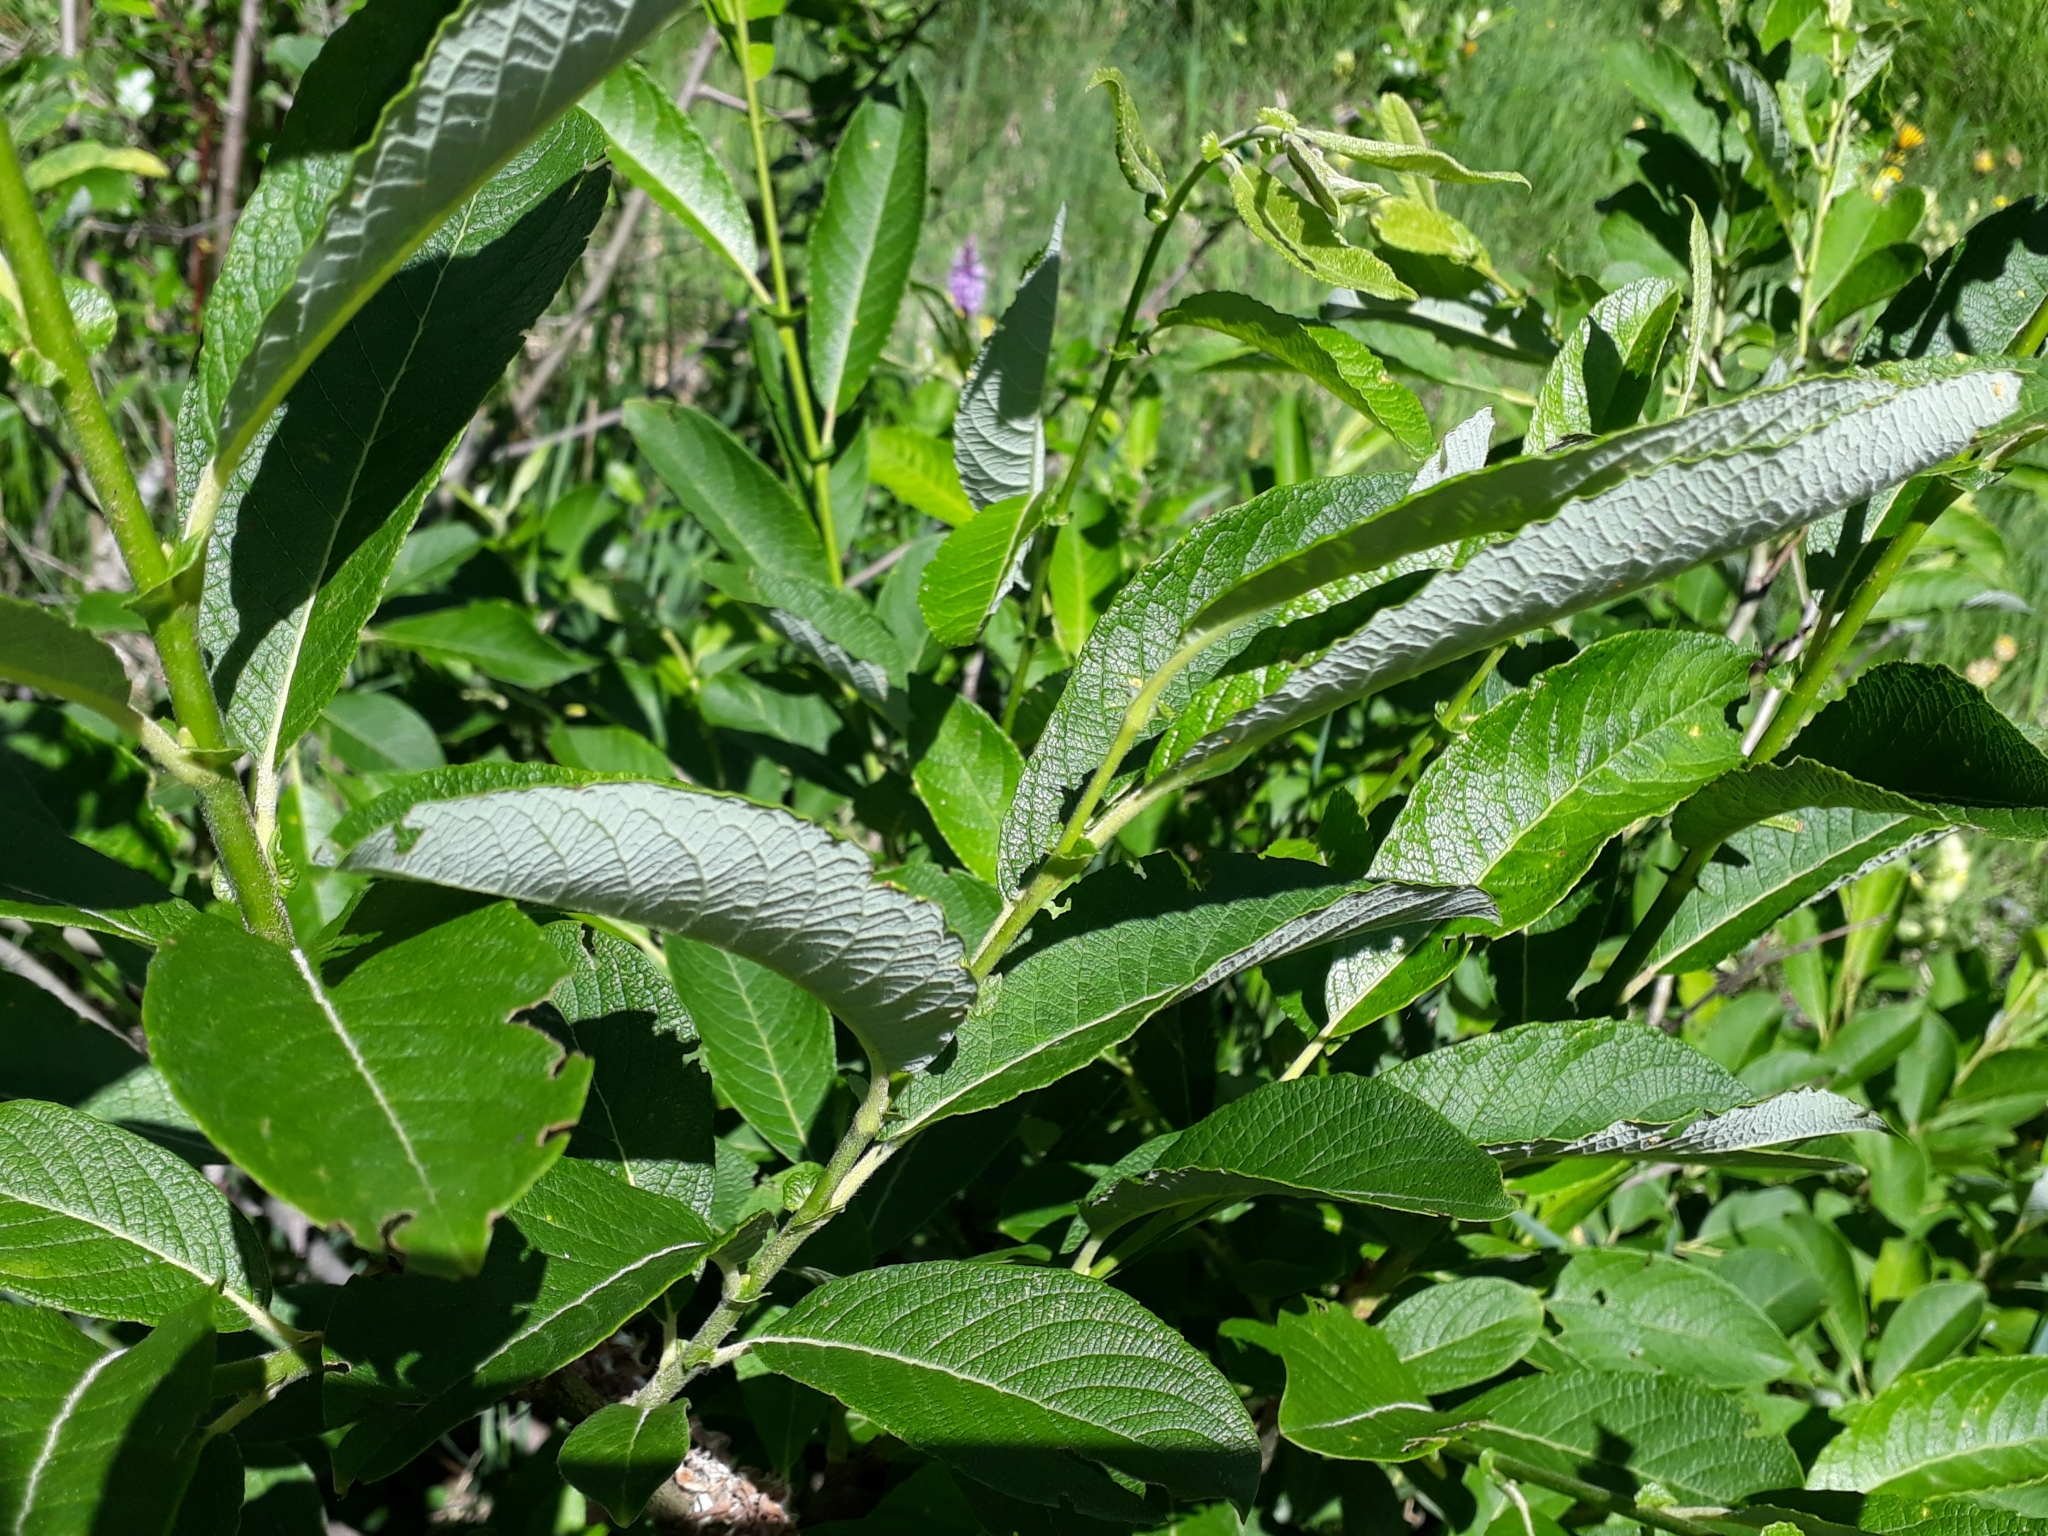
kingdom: Plantae
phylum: Tracheophyta
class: Magnoliopsida
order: Malpighiales
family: Salicaceae
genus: Salix
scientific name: Salix appendiculata
